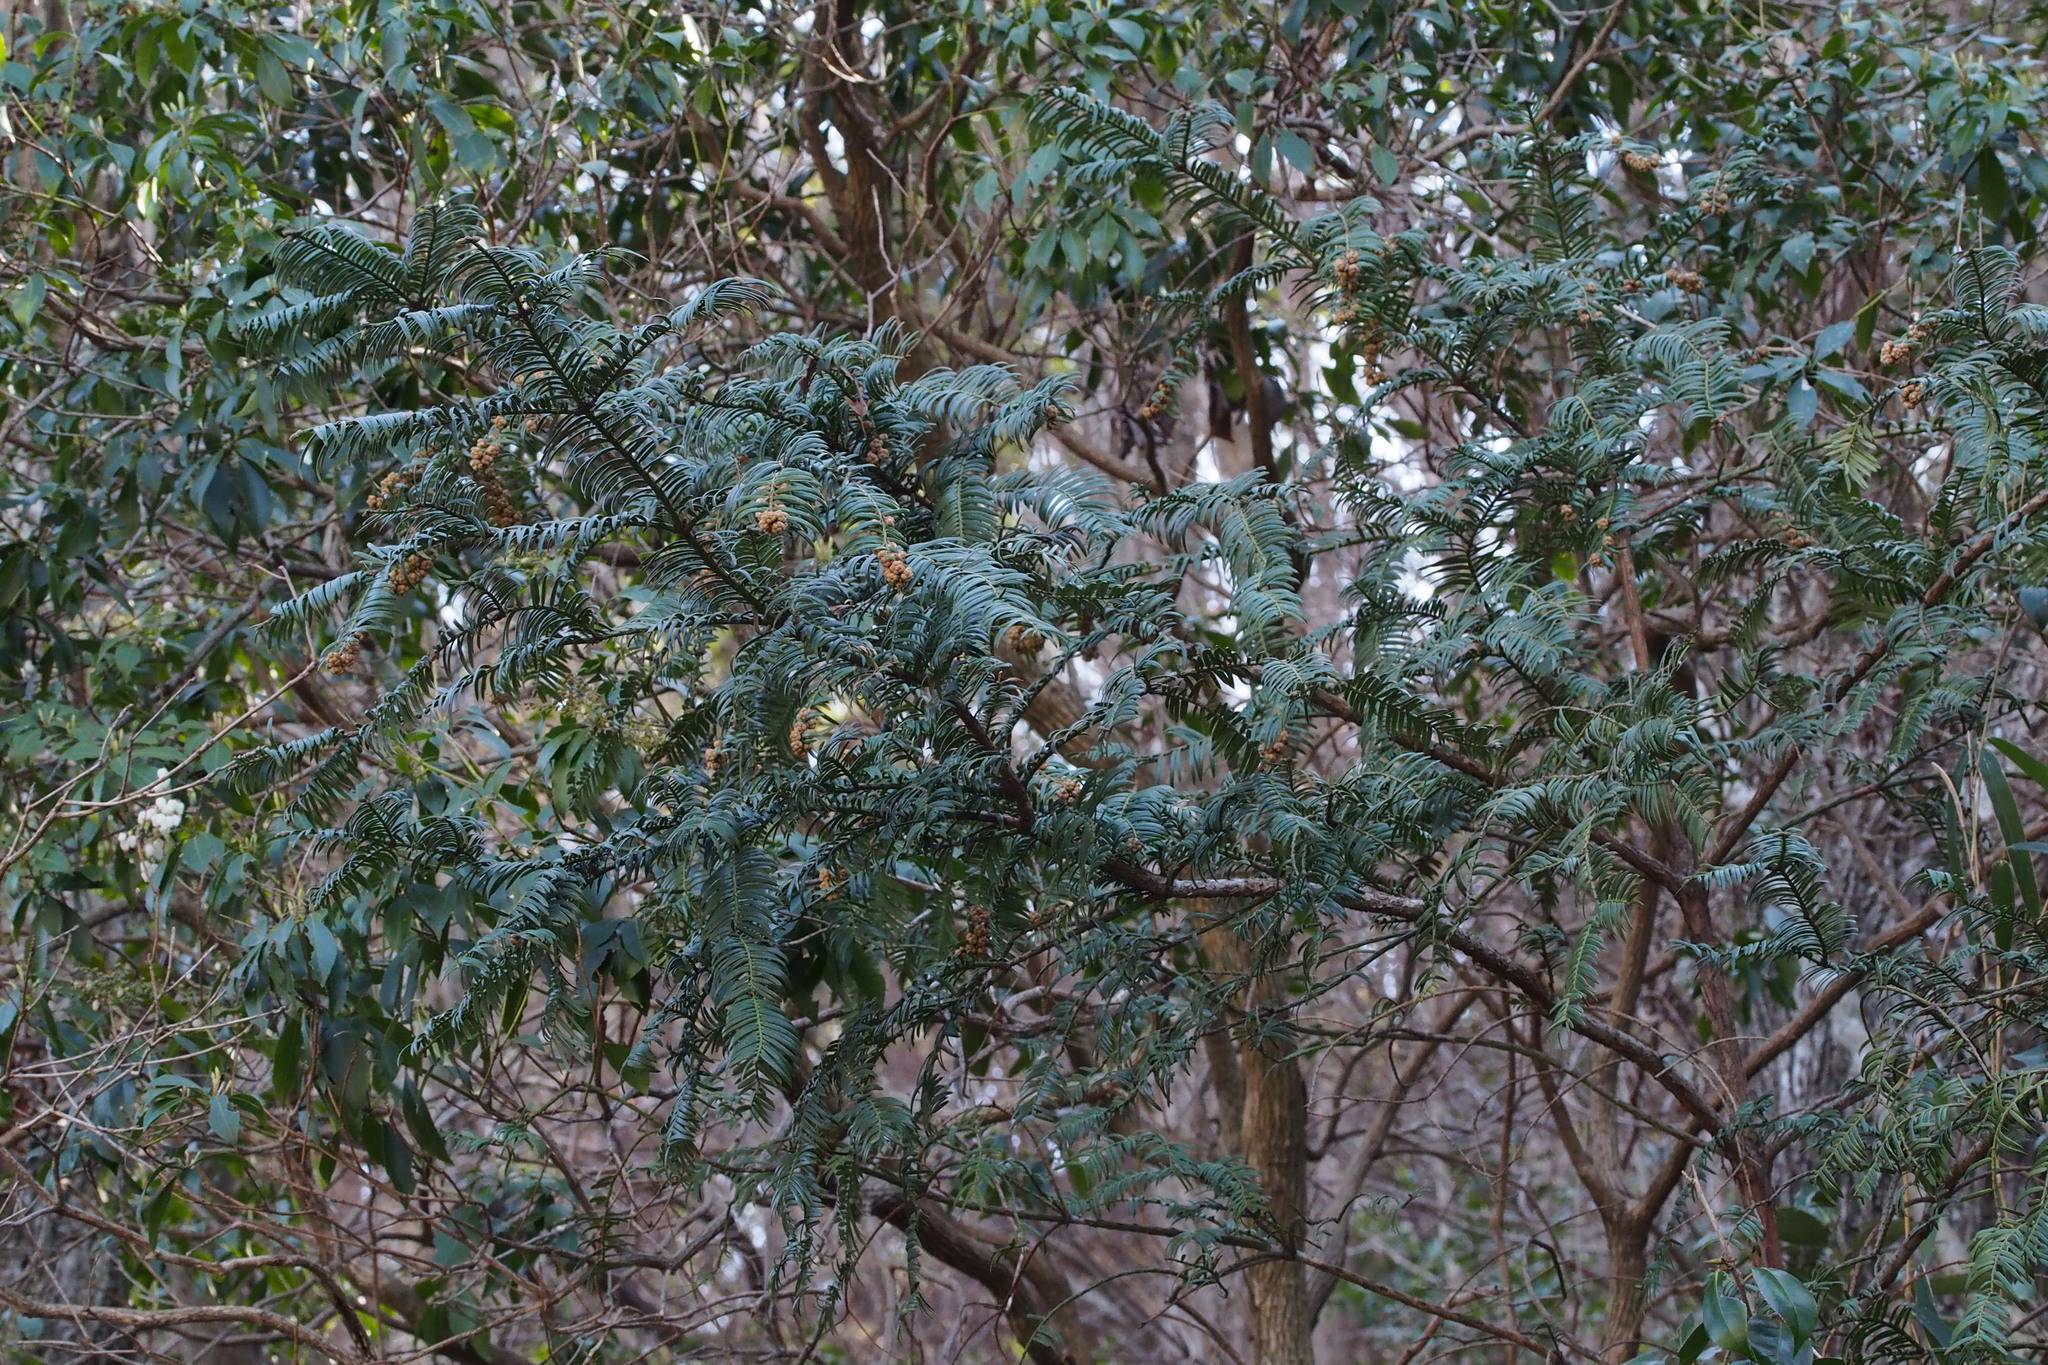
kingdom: Plantae
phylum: Tracheophyta
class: Pinopsida
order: Pinales
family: Cephalotaxaceae
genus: Cephalotaxus
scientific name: Cephalotaxus harringtonia
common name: Japanese plum-yew
